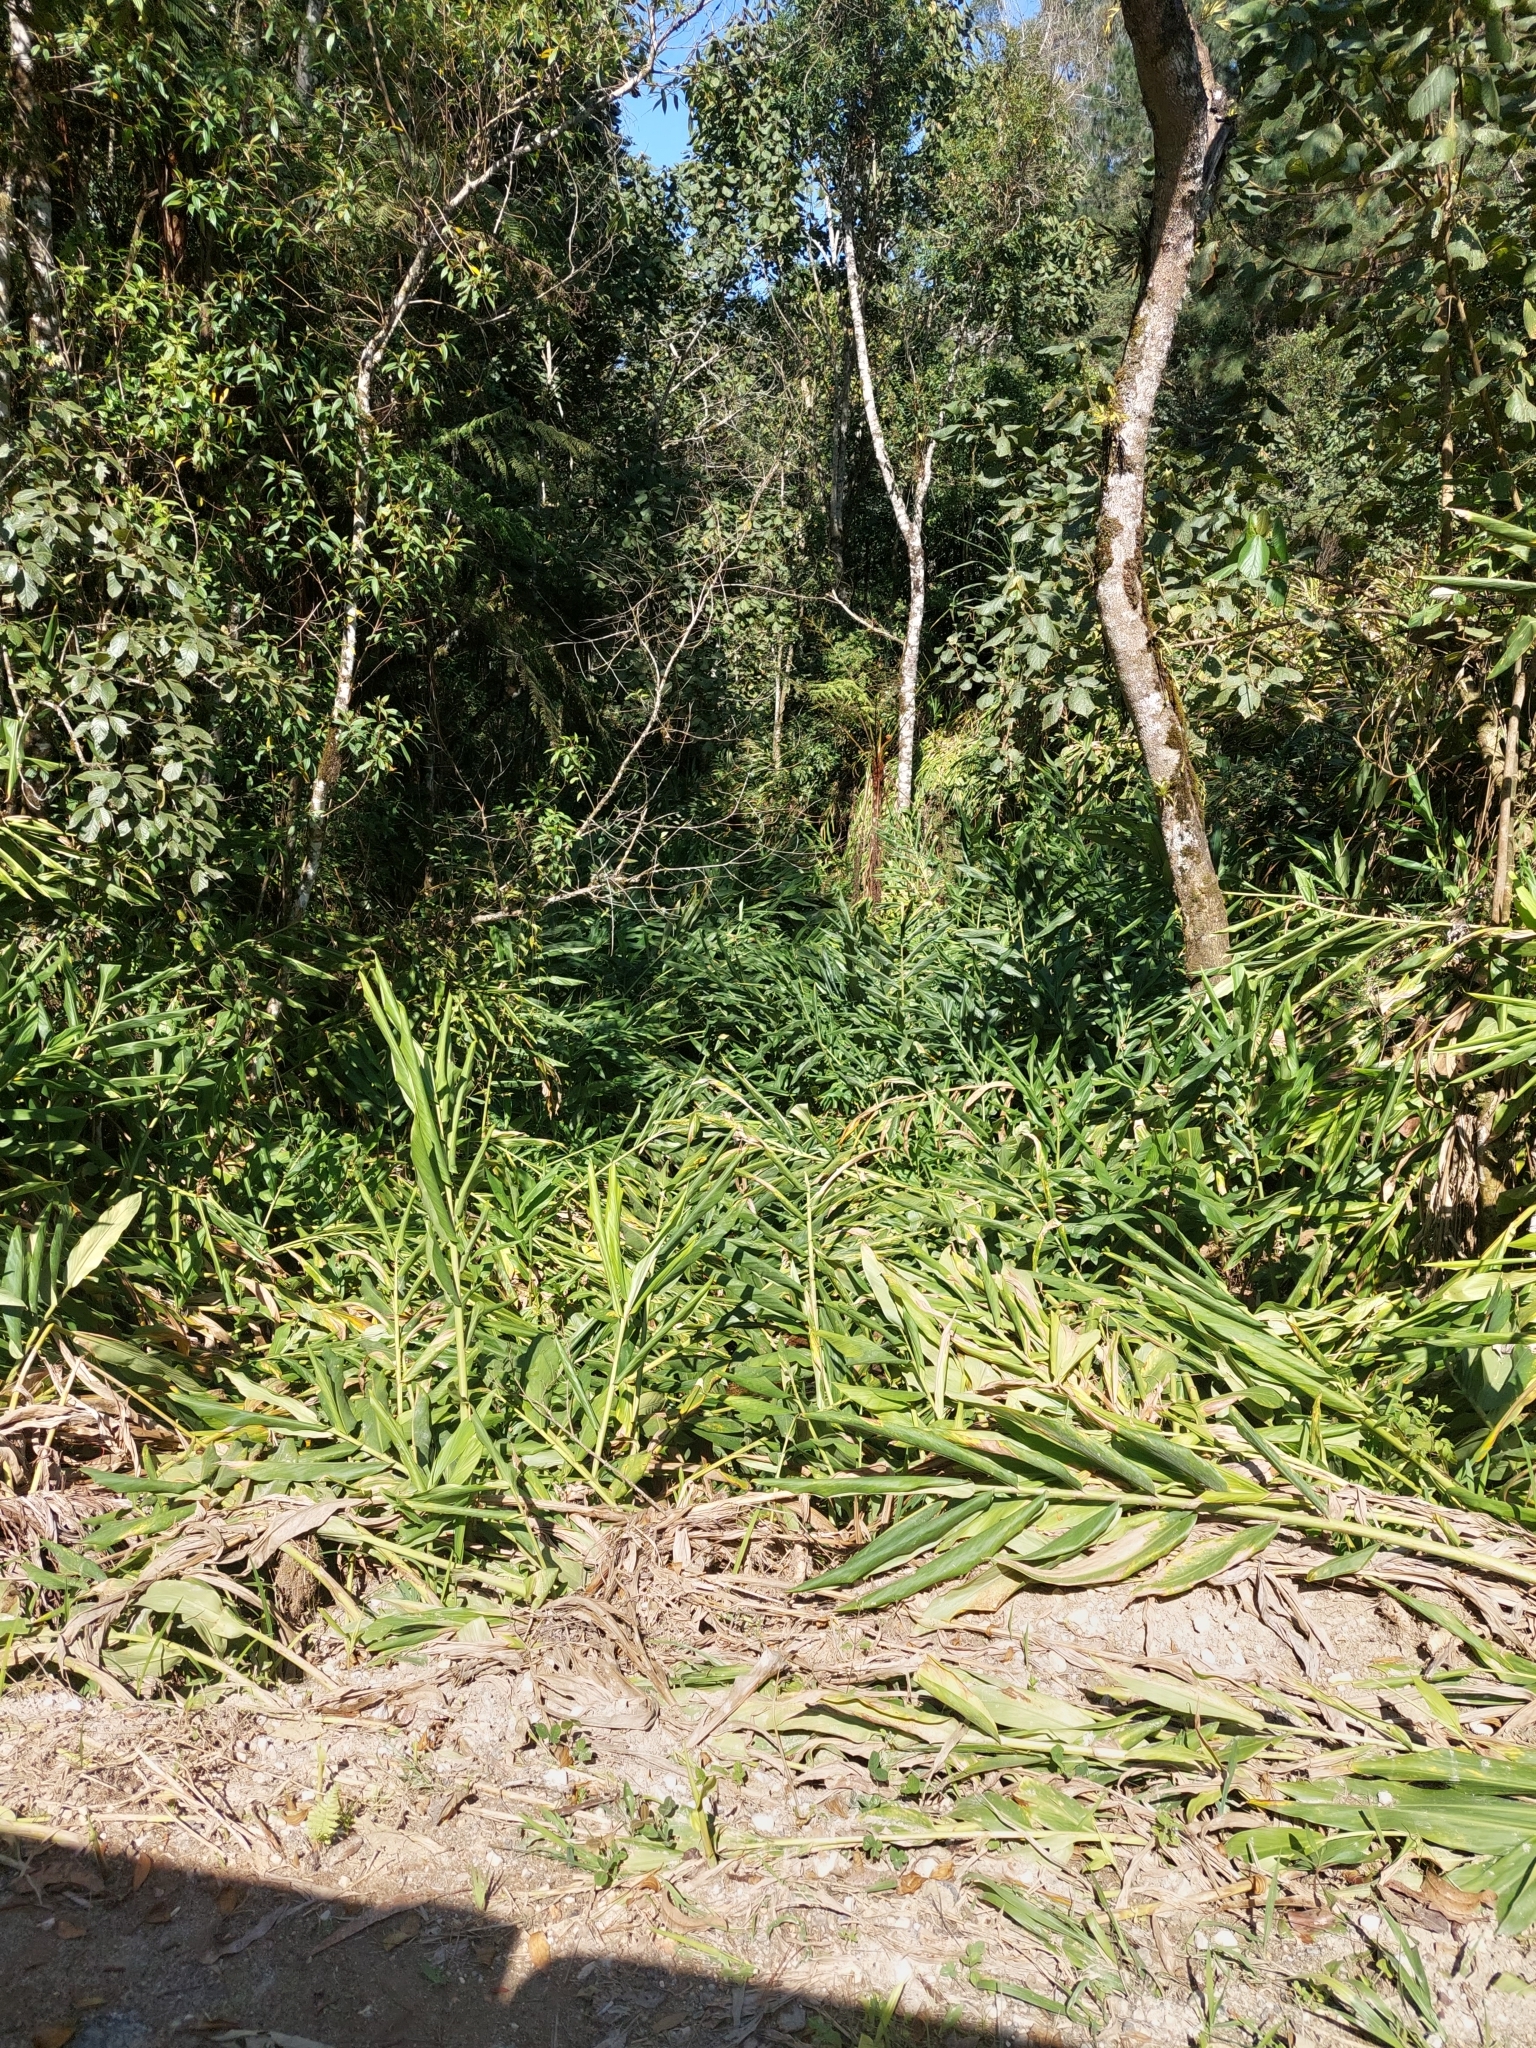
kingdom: Plantae
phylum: Tracheophyta
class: Liliopsida
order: Zingiberales
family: Zingiberaceae
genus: Hedychium
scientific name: Hedychium coronarium
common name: White garland-lily
